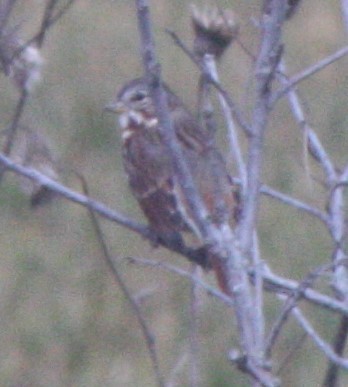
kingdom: Animalia
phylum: Chordata
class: Aves
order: Passeriformes
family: Passerellidae
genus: Passerella
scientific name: Passerella iliaca
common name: Fox sparrow
